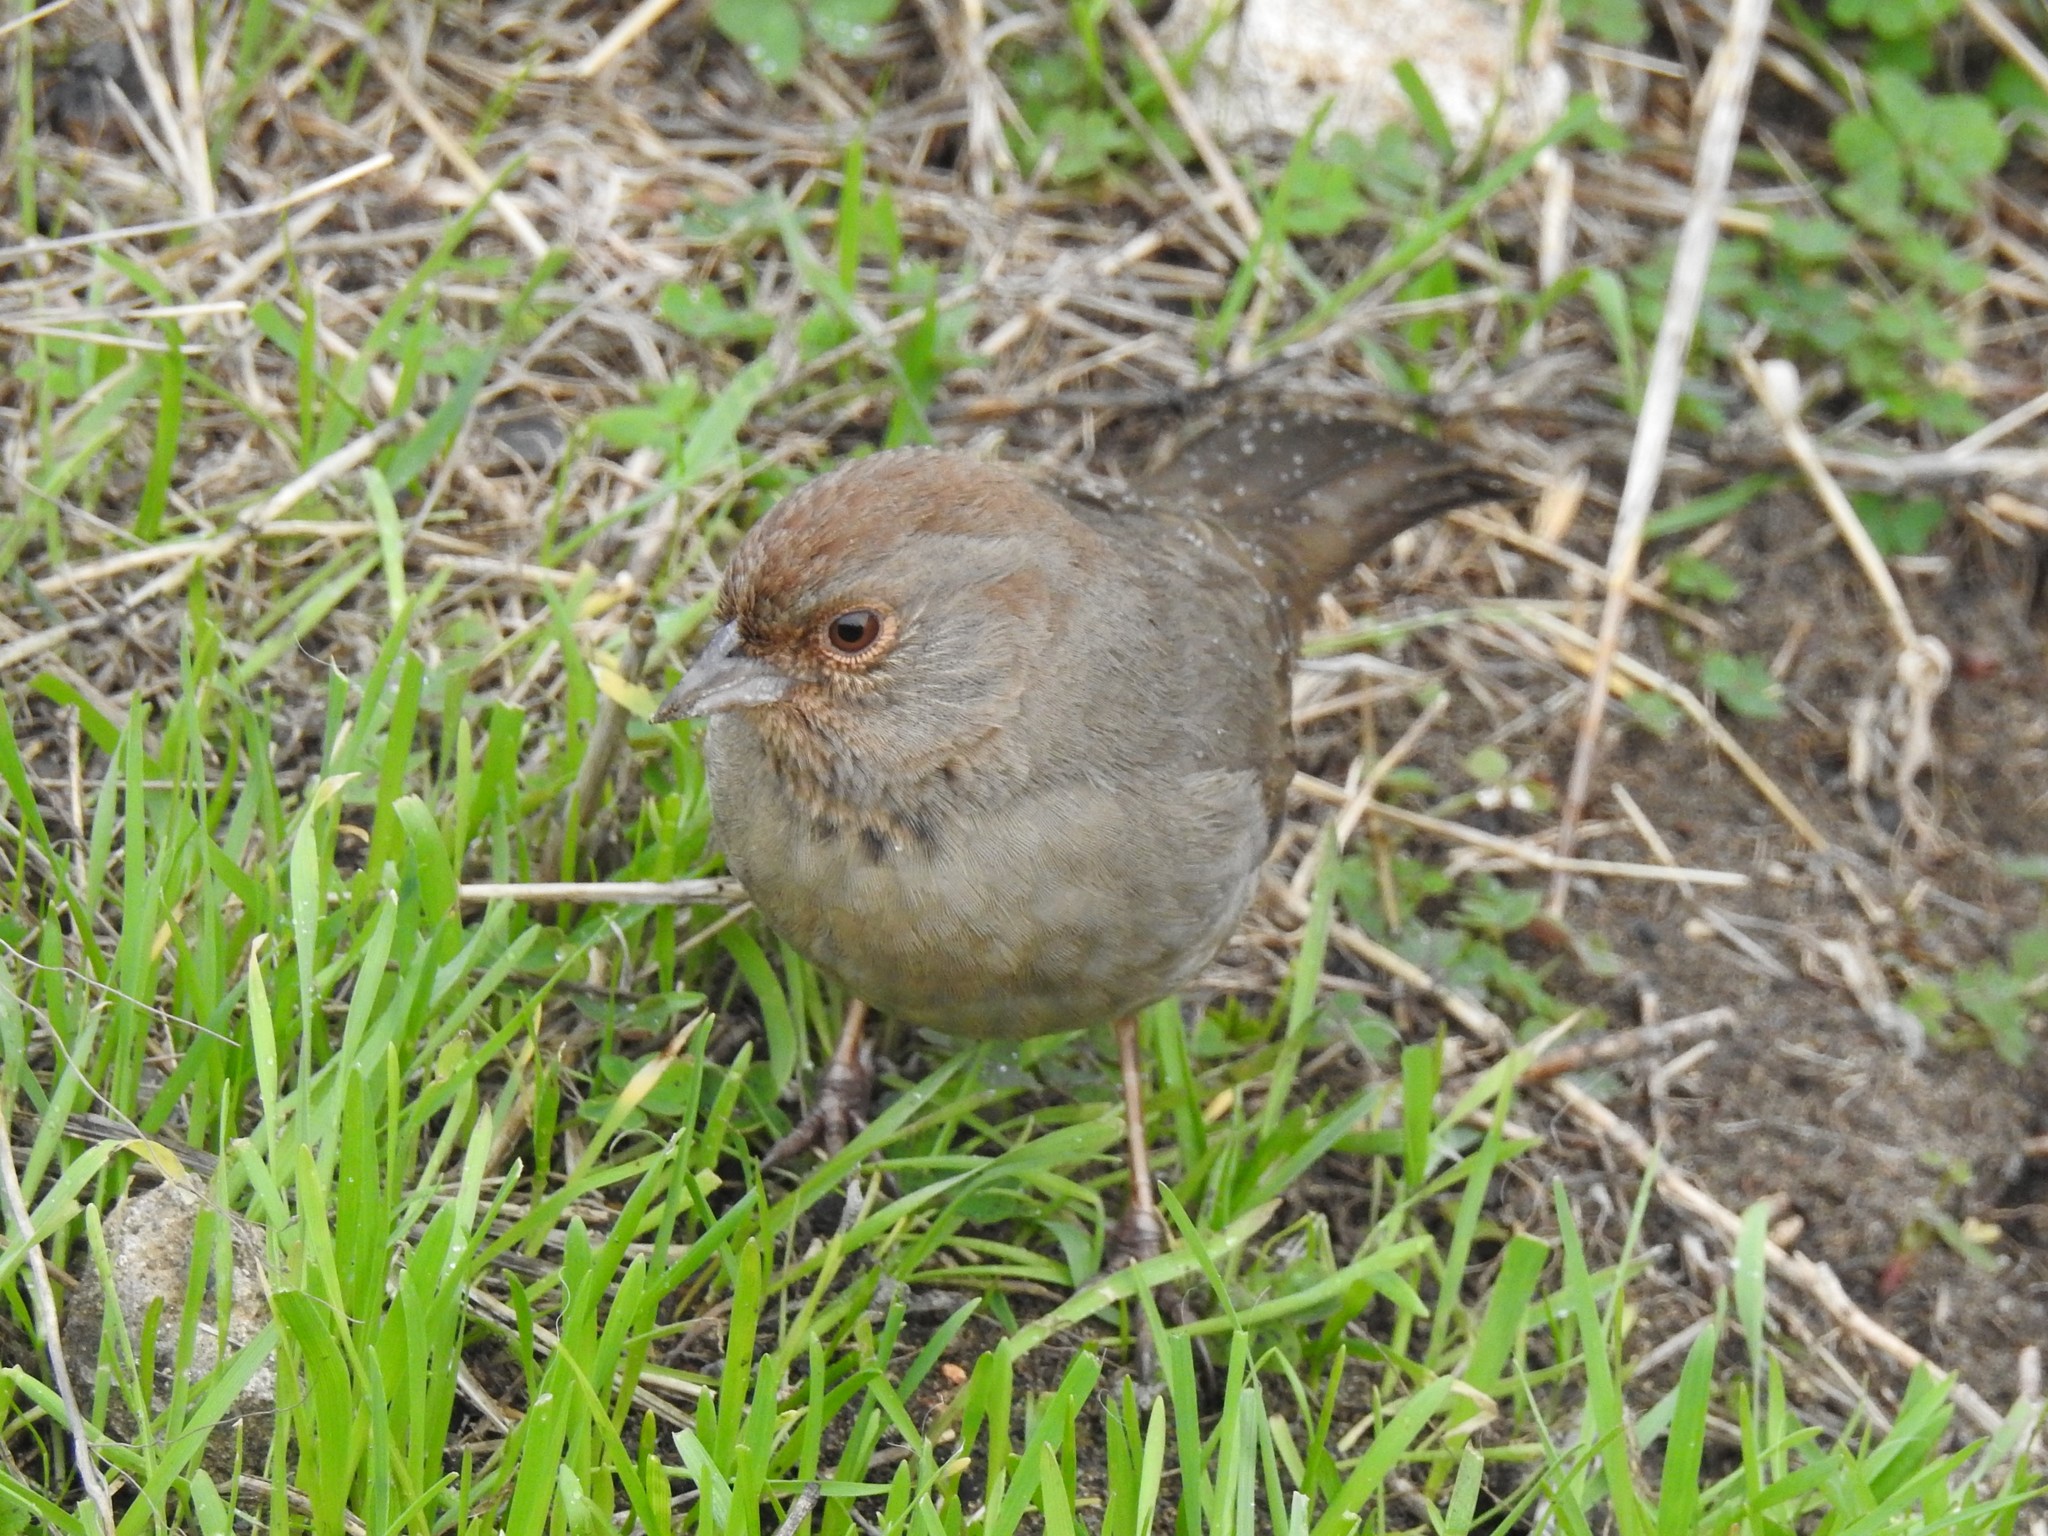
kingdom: Animalia
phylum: Chordata
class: Aves
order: Passeriformes
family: Passerellidae
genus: Melozone
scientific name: Melozone crissalis
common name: California towhee
